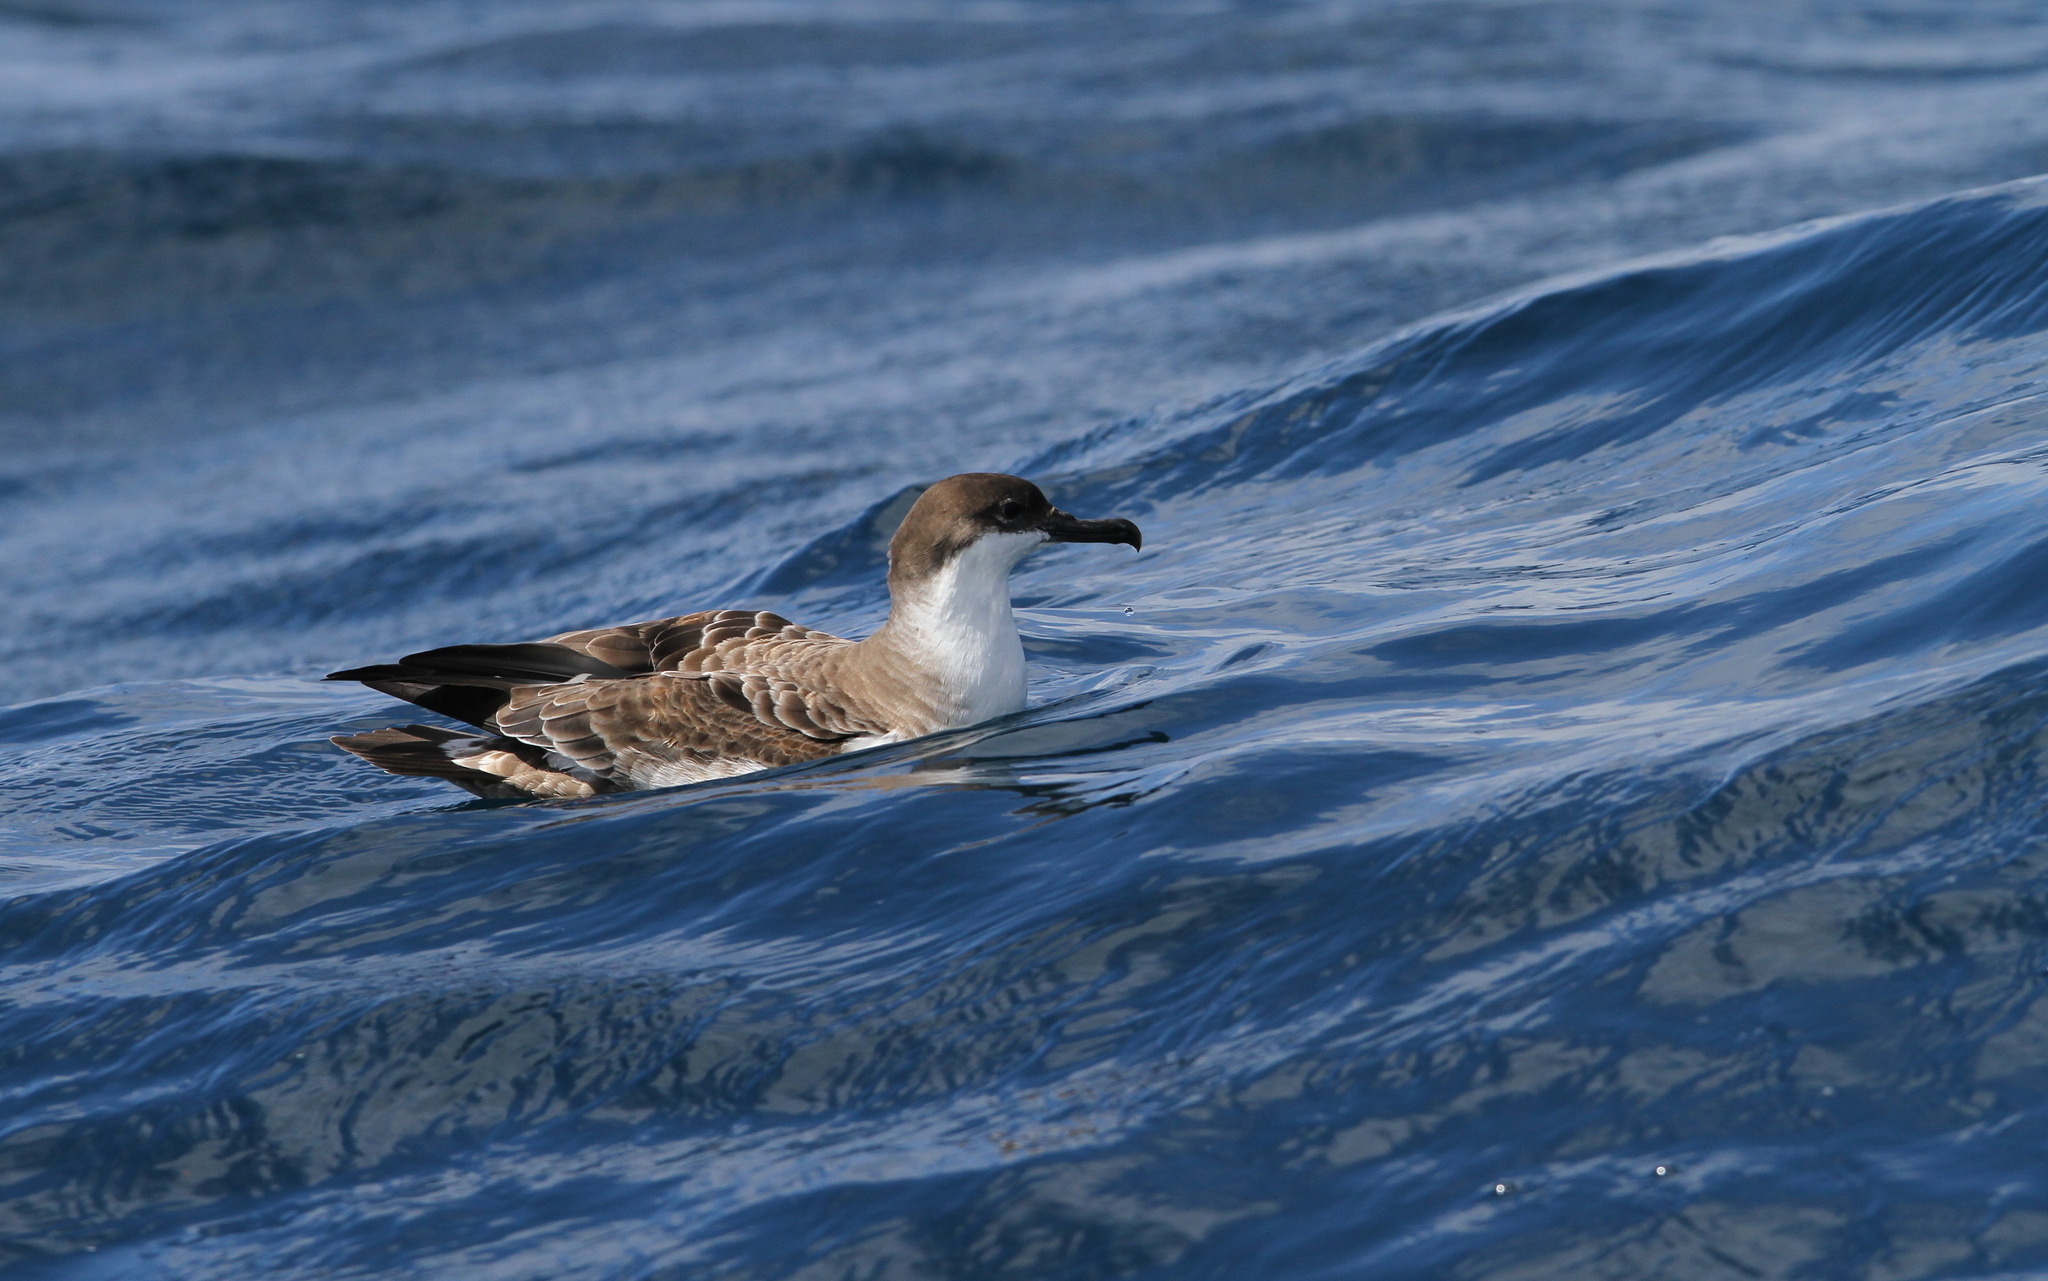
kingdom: Animalia
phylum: Chordata
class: Aves
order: Procellariiformes
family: Procellariidae
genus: Puffinus
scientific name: Puffinus gravis
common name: Great shearwater
